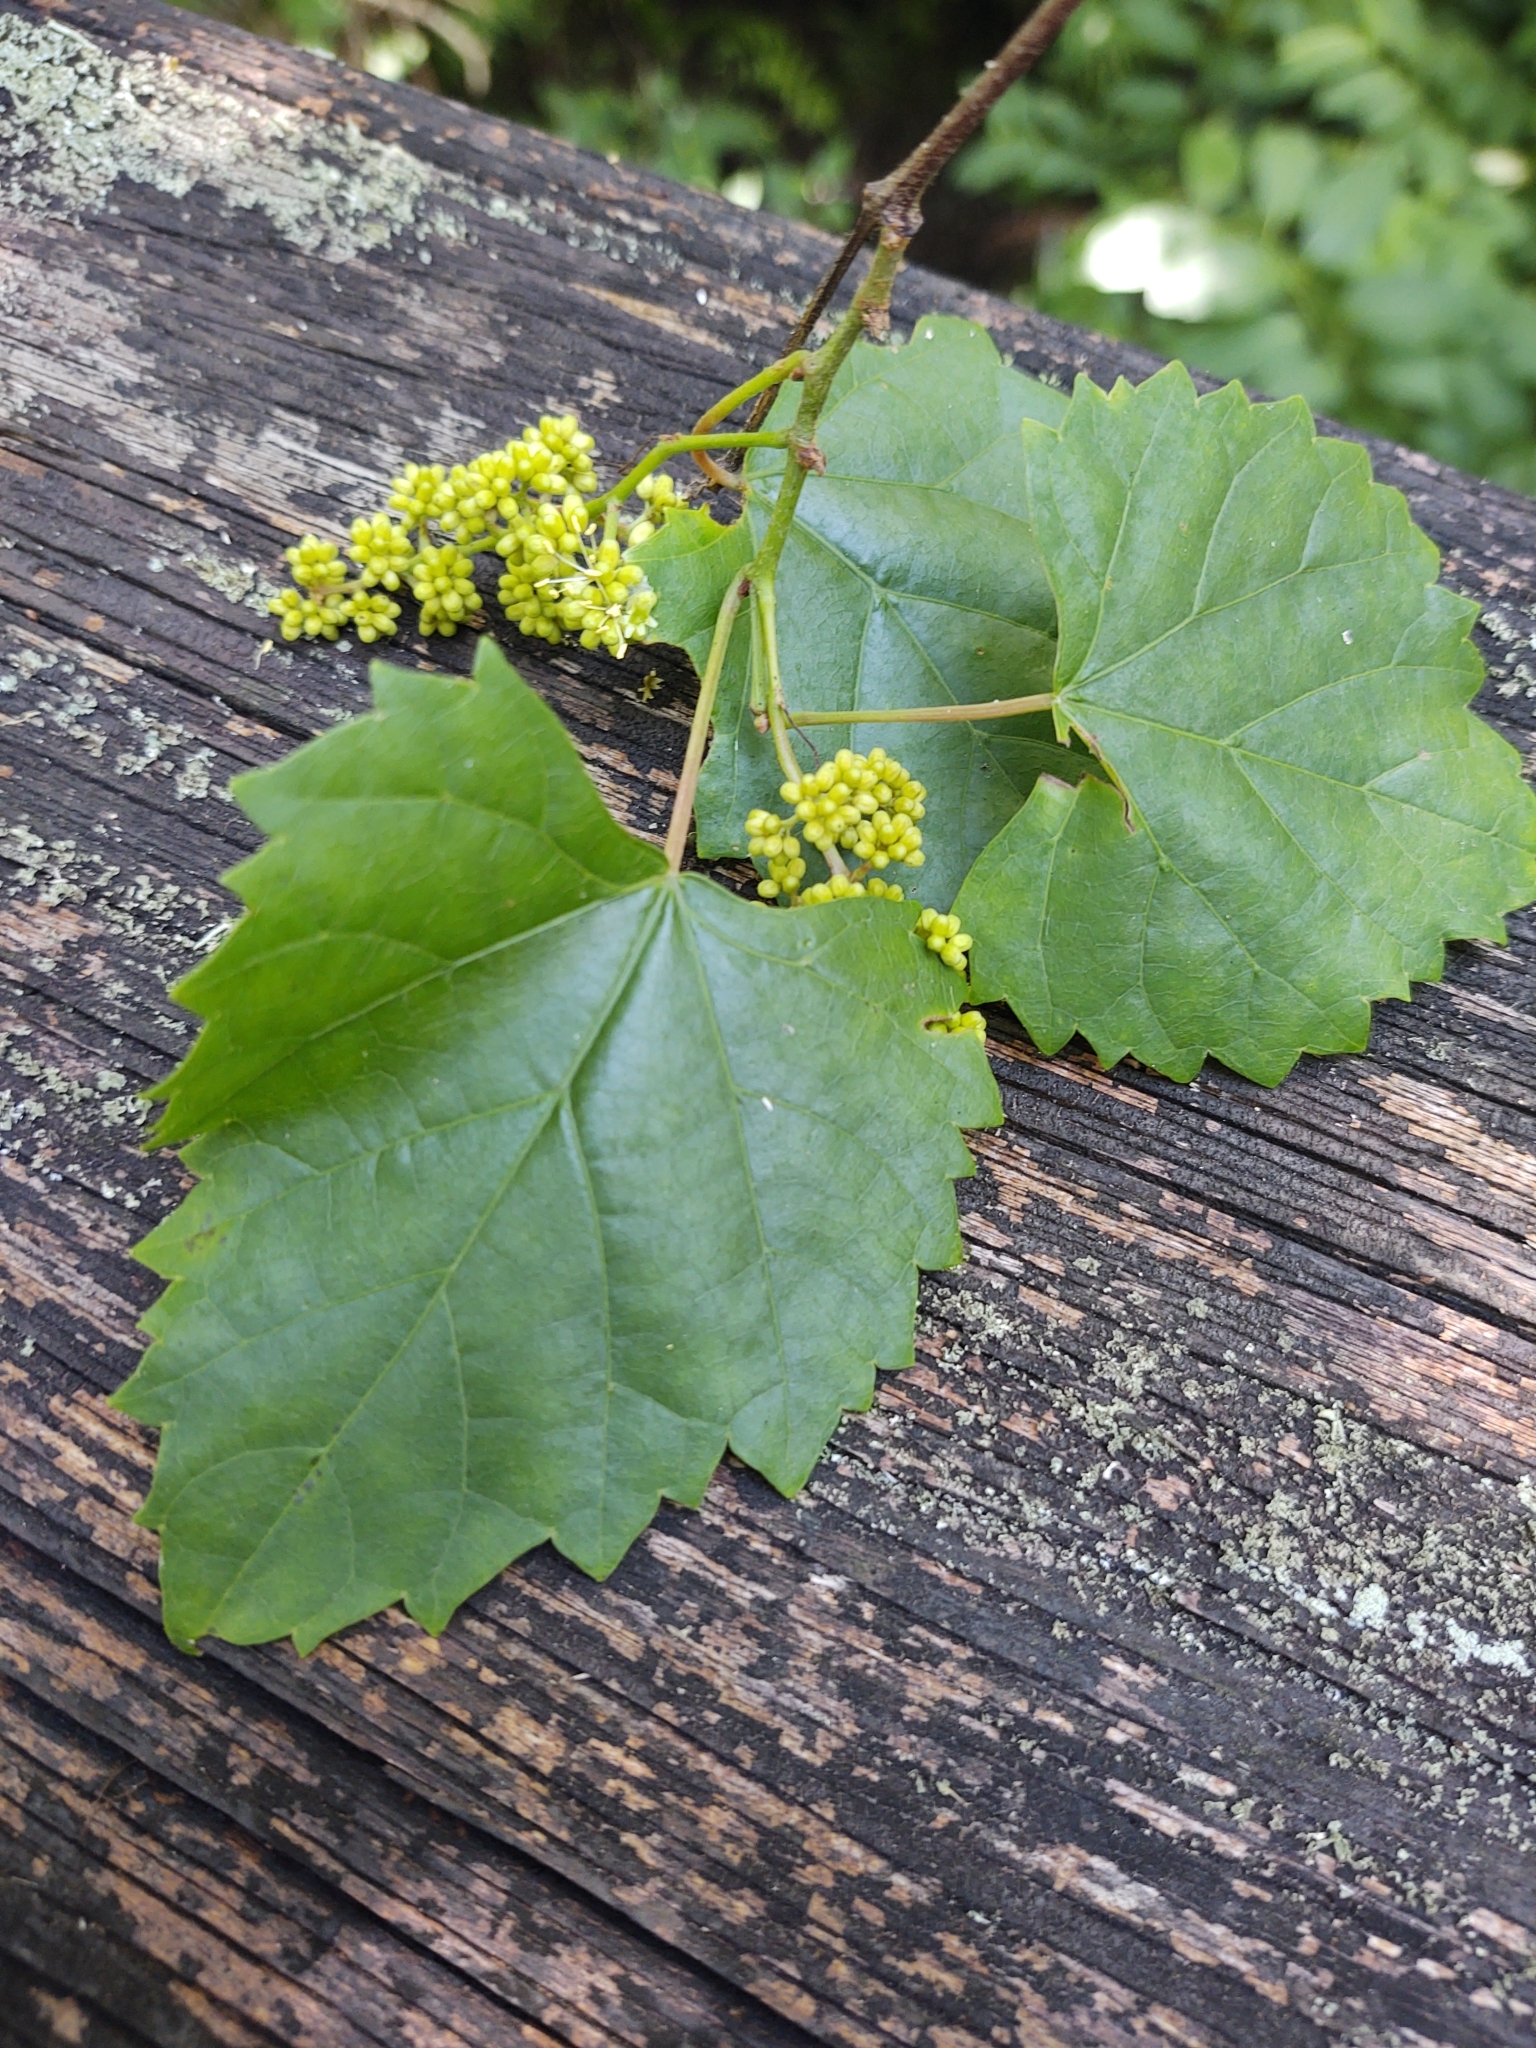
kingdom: Plantae
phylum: Tracheophyta
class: Magnoliopsida
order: Vitales
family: Vitaceae
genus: Vitis
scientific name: Vitis rotundifolia
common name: Muscadine grape
